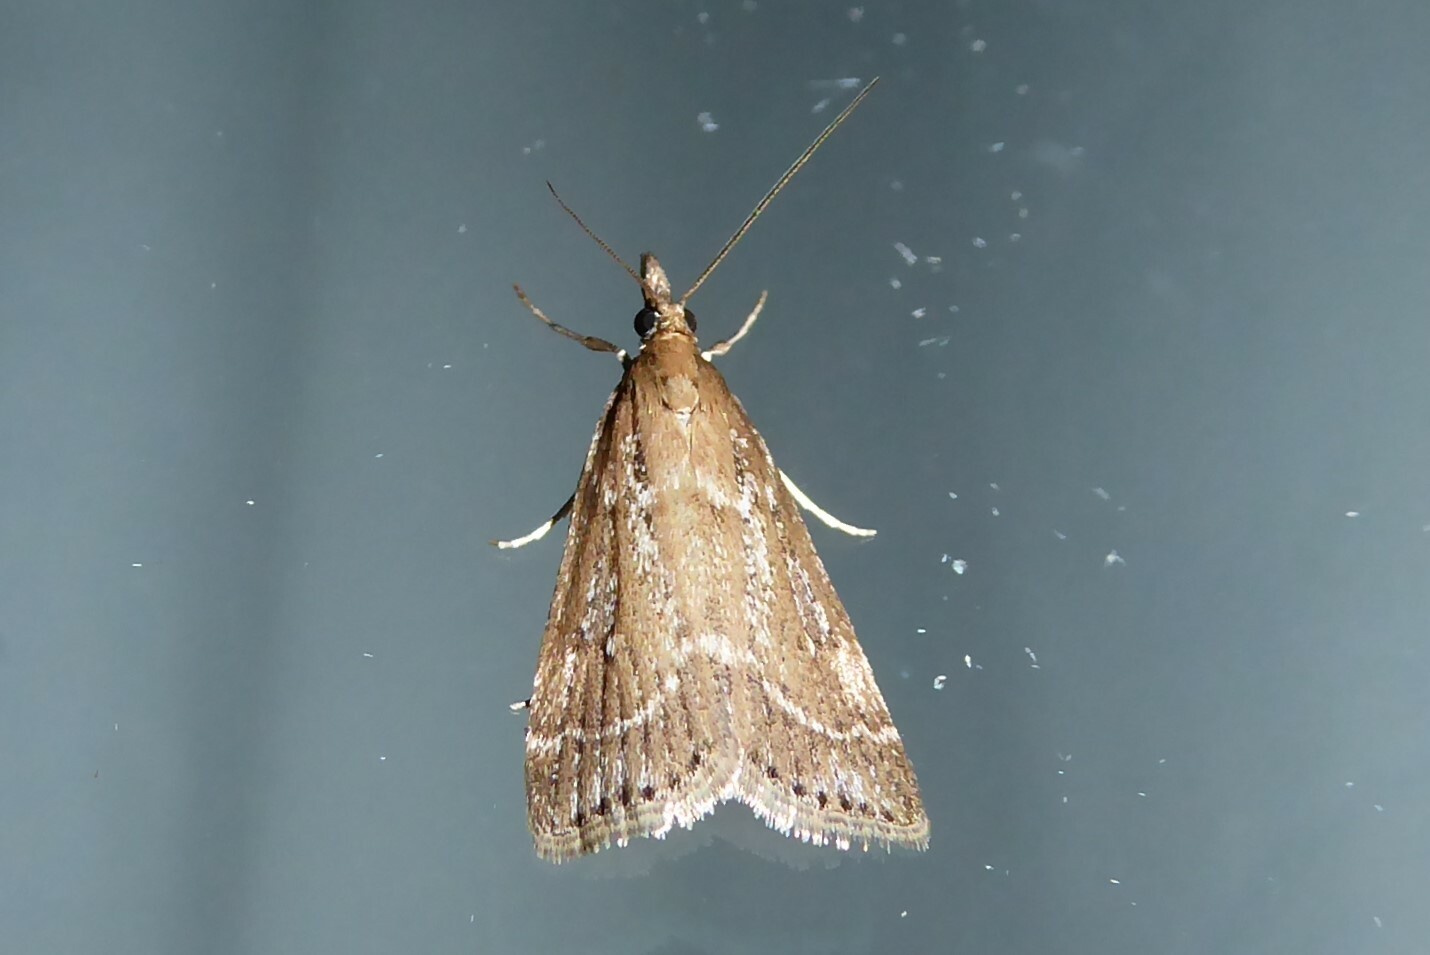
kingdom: Animalia
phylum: Arthropoda
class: Insecta
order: Lepidoptera
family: Crambidae
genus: Eudonia
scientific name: Eudonia octophora
